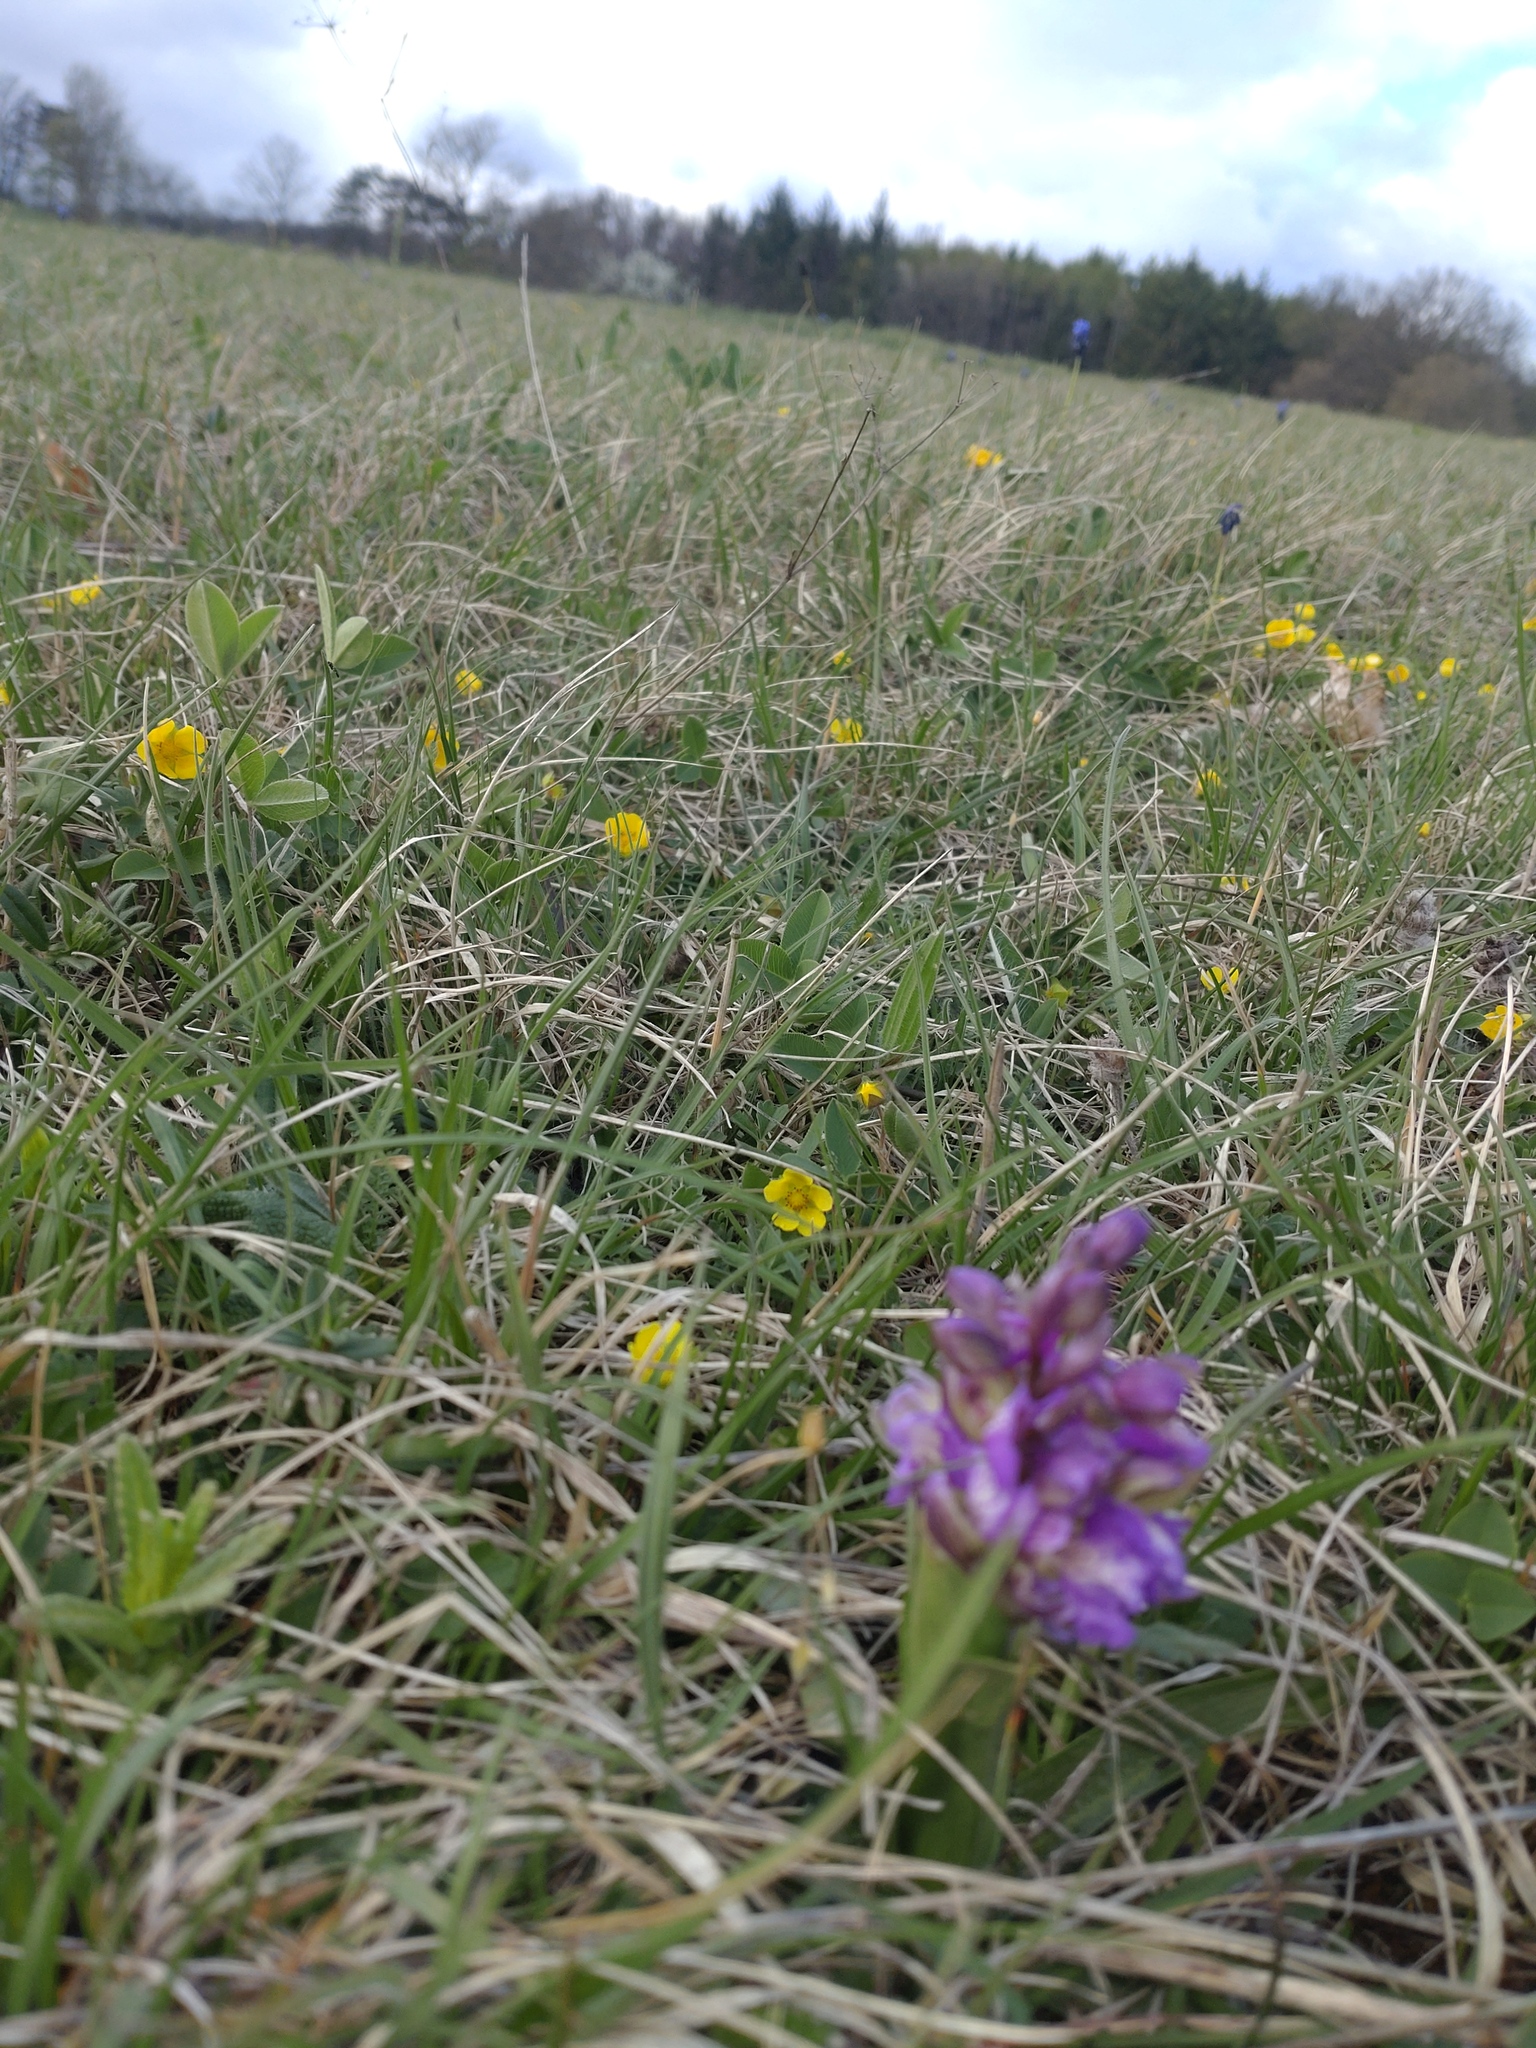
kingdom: Plantae
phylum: Tracheophyta
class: Liliopsida
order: Asparagales
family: Orchidaceae
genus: Anacamptis
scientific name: Anacamptis morio
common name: Green-winged orchid
